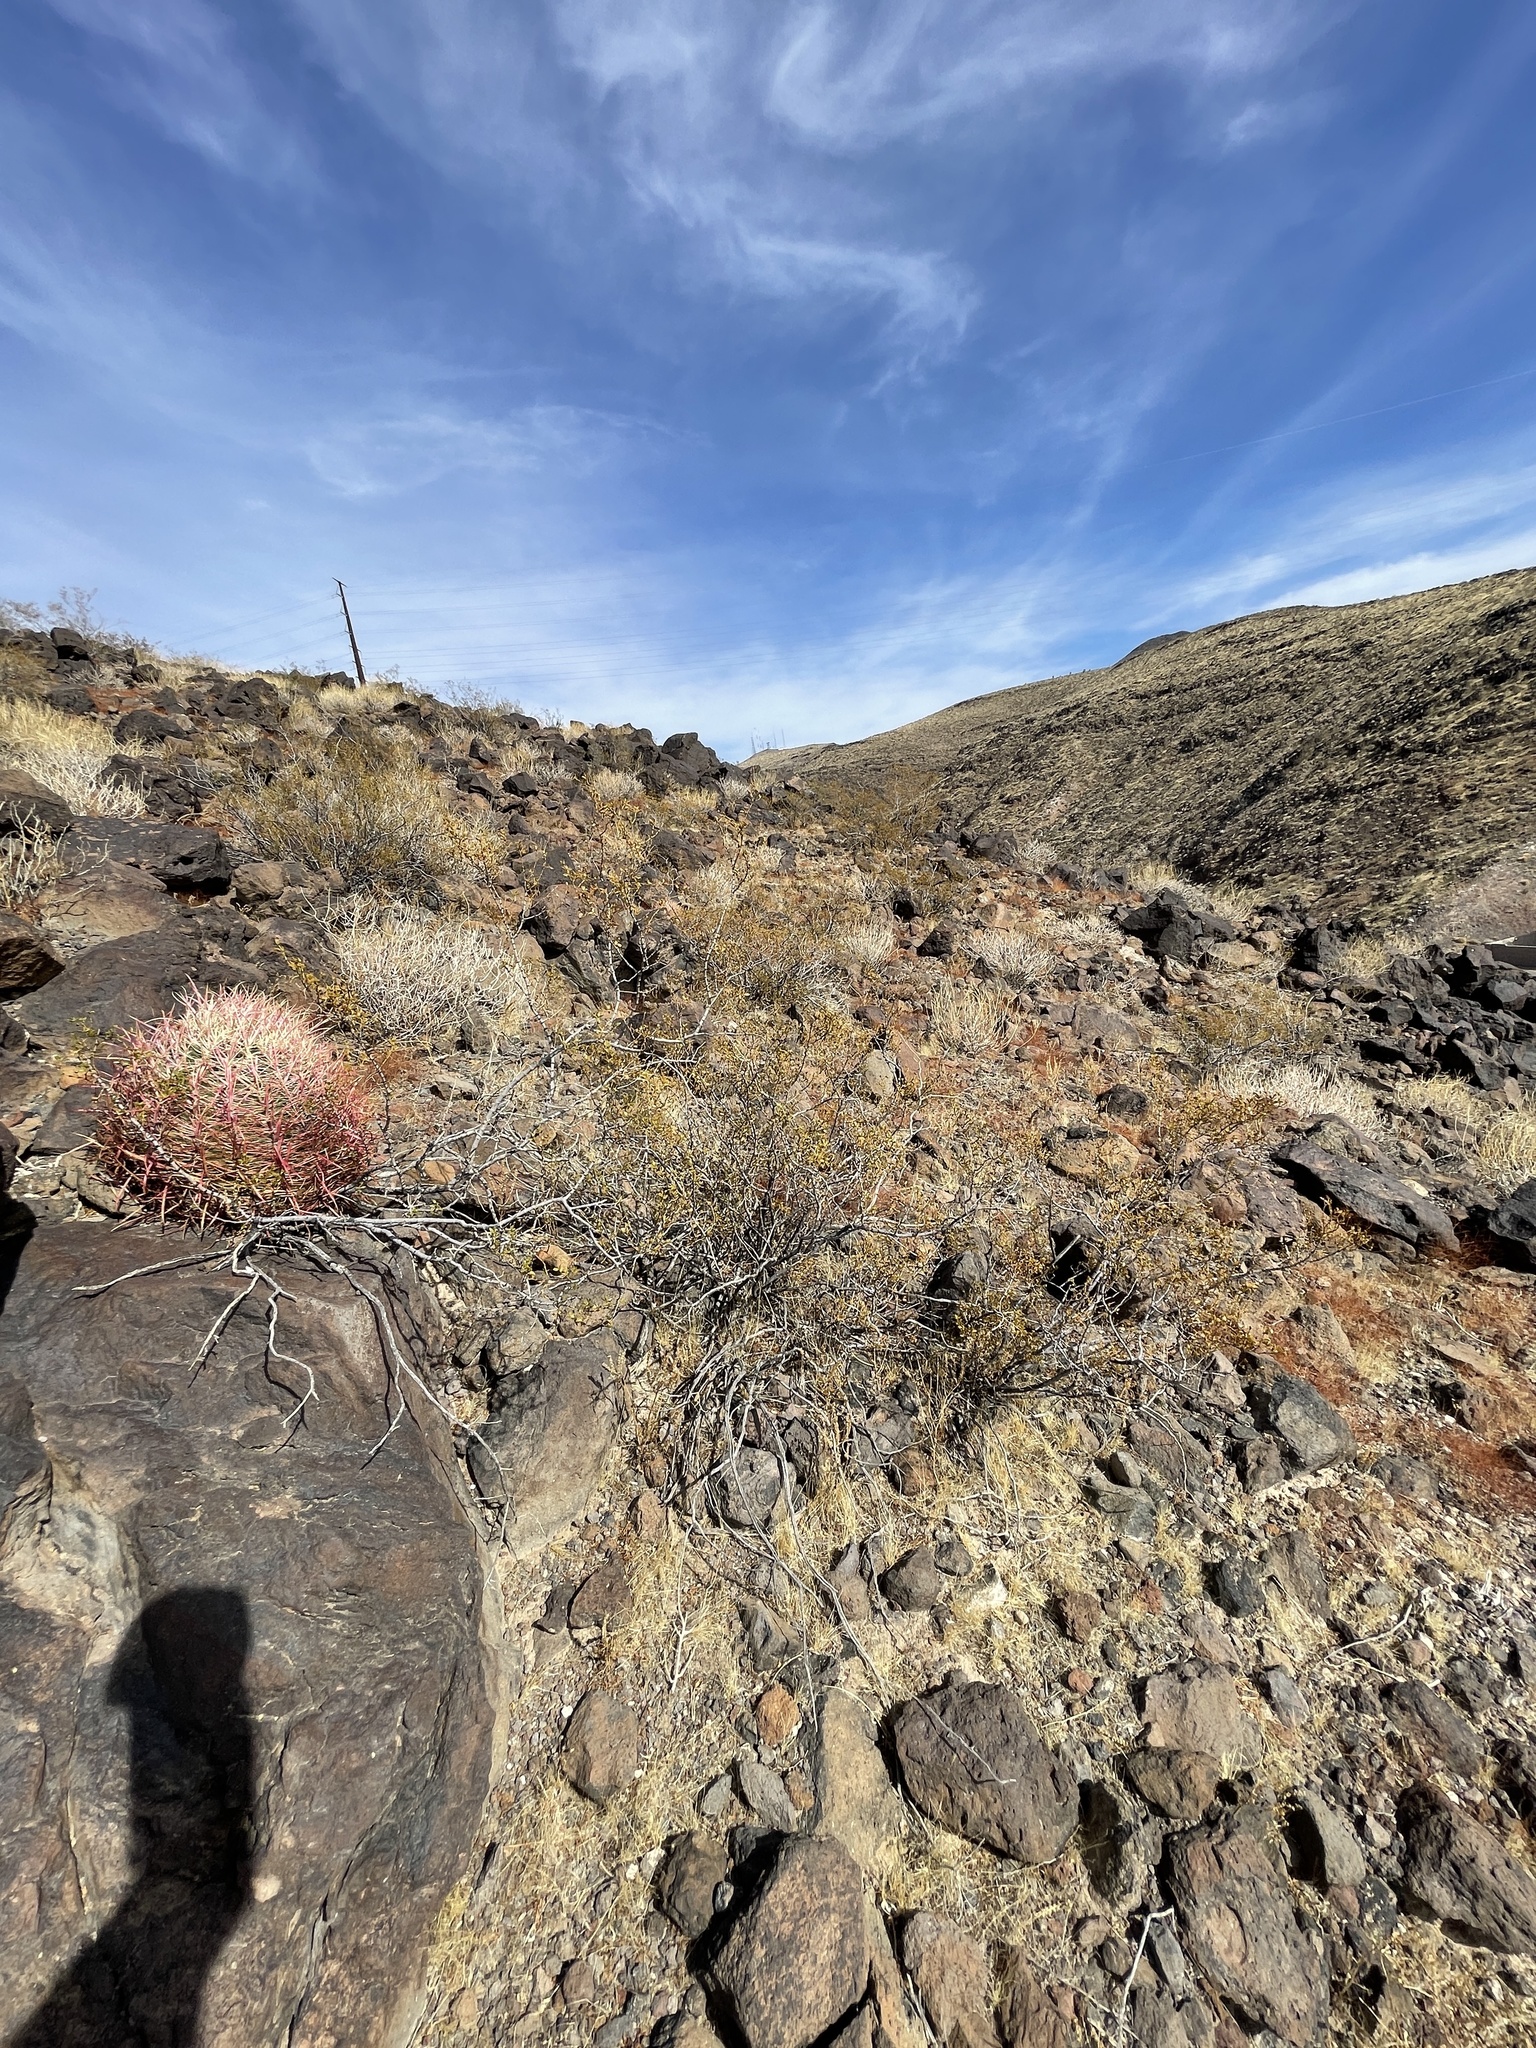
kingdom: Plantae
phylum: Tracheophyta
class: Magnoliopsida
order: Zygophyllales
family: Zygophyllaceae
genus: Larrea
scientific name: Larrea tridentata
